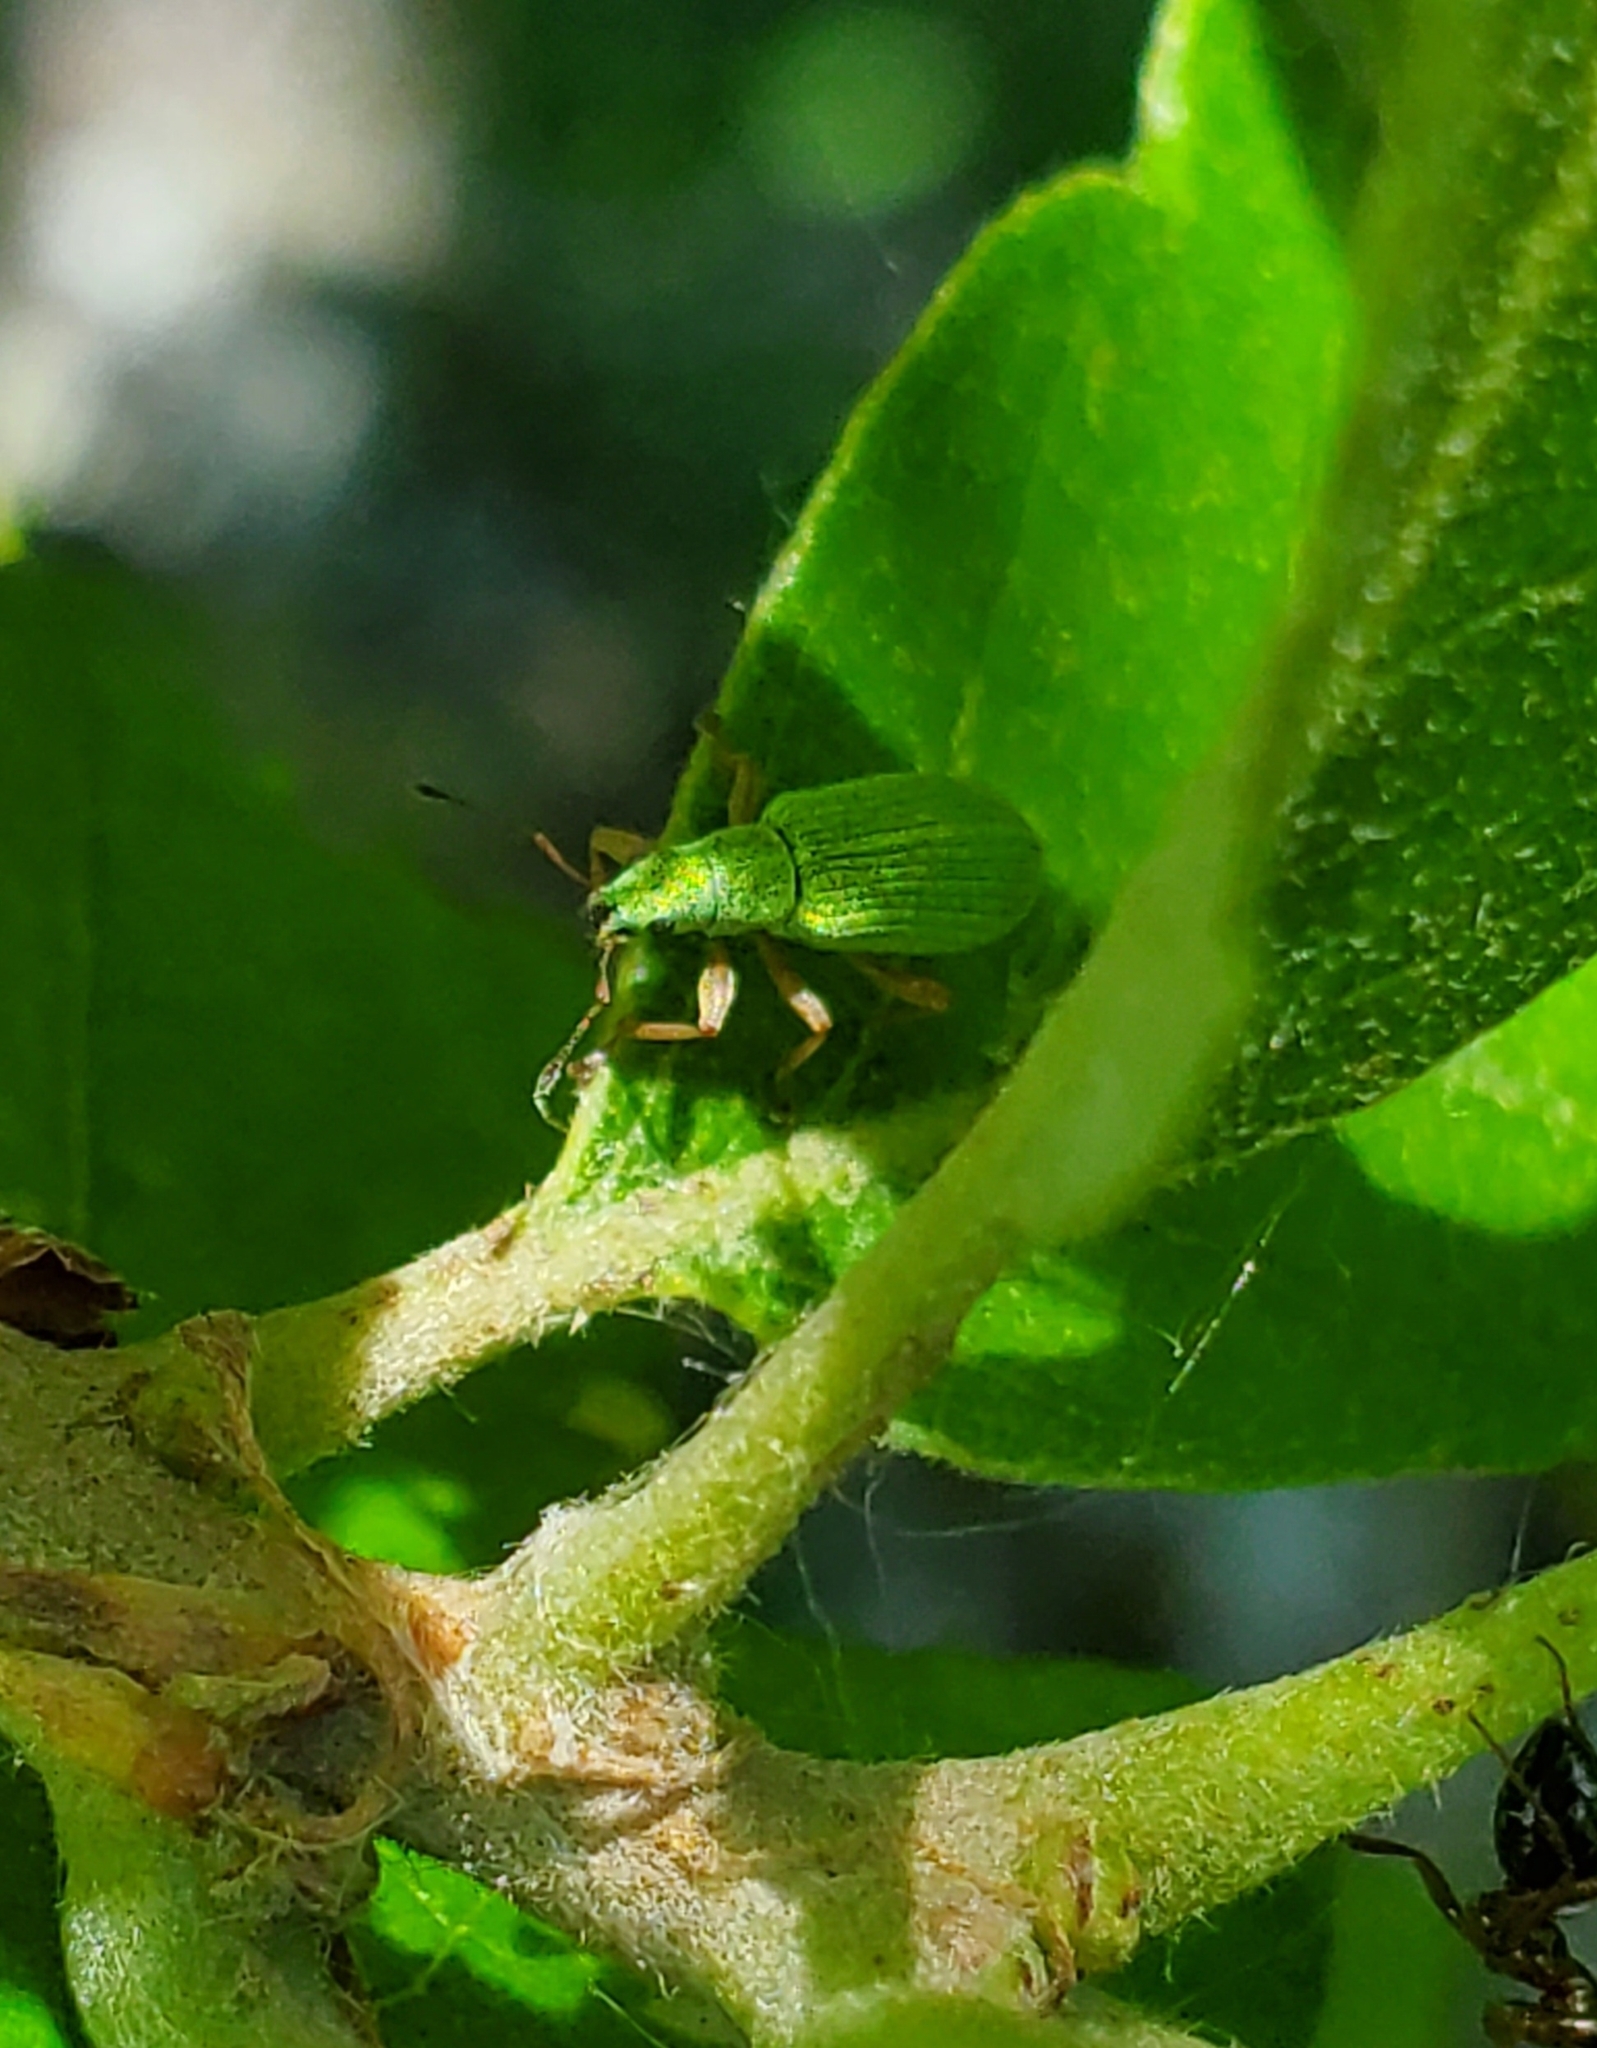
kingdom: Animalia
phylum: Arthropoda
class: Insecta
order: Coleoptera
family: Curculionidae
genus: Polydrusus
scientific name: Polydrusus impressifrons
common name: Weevil
